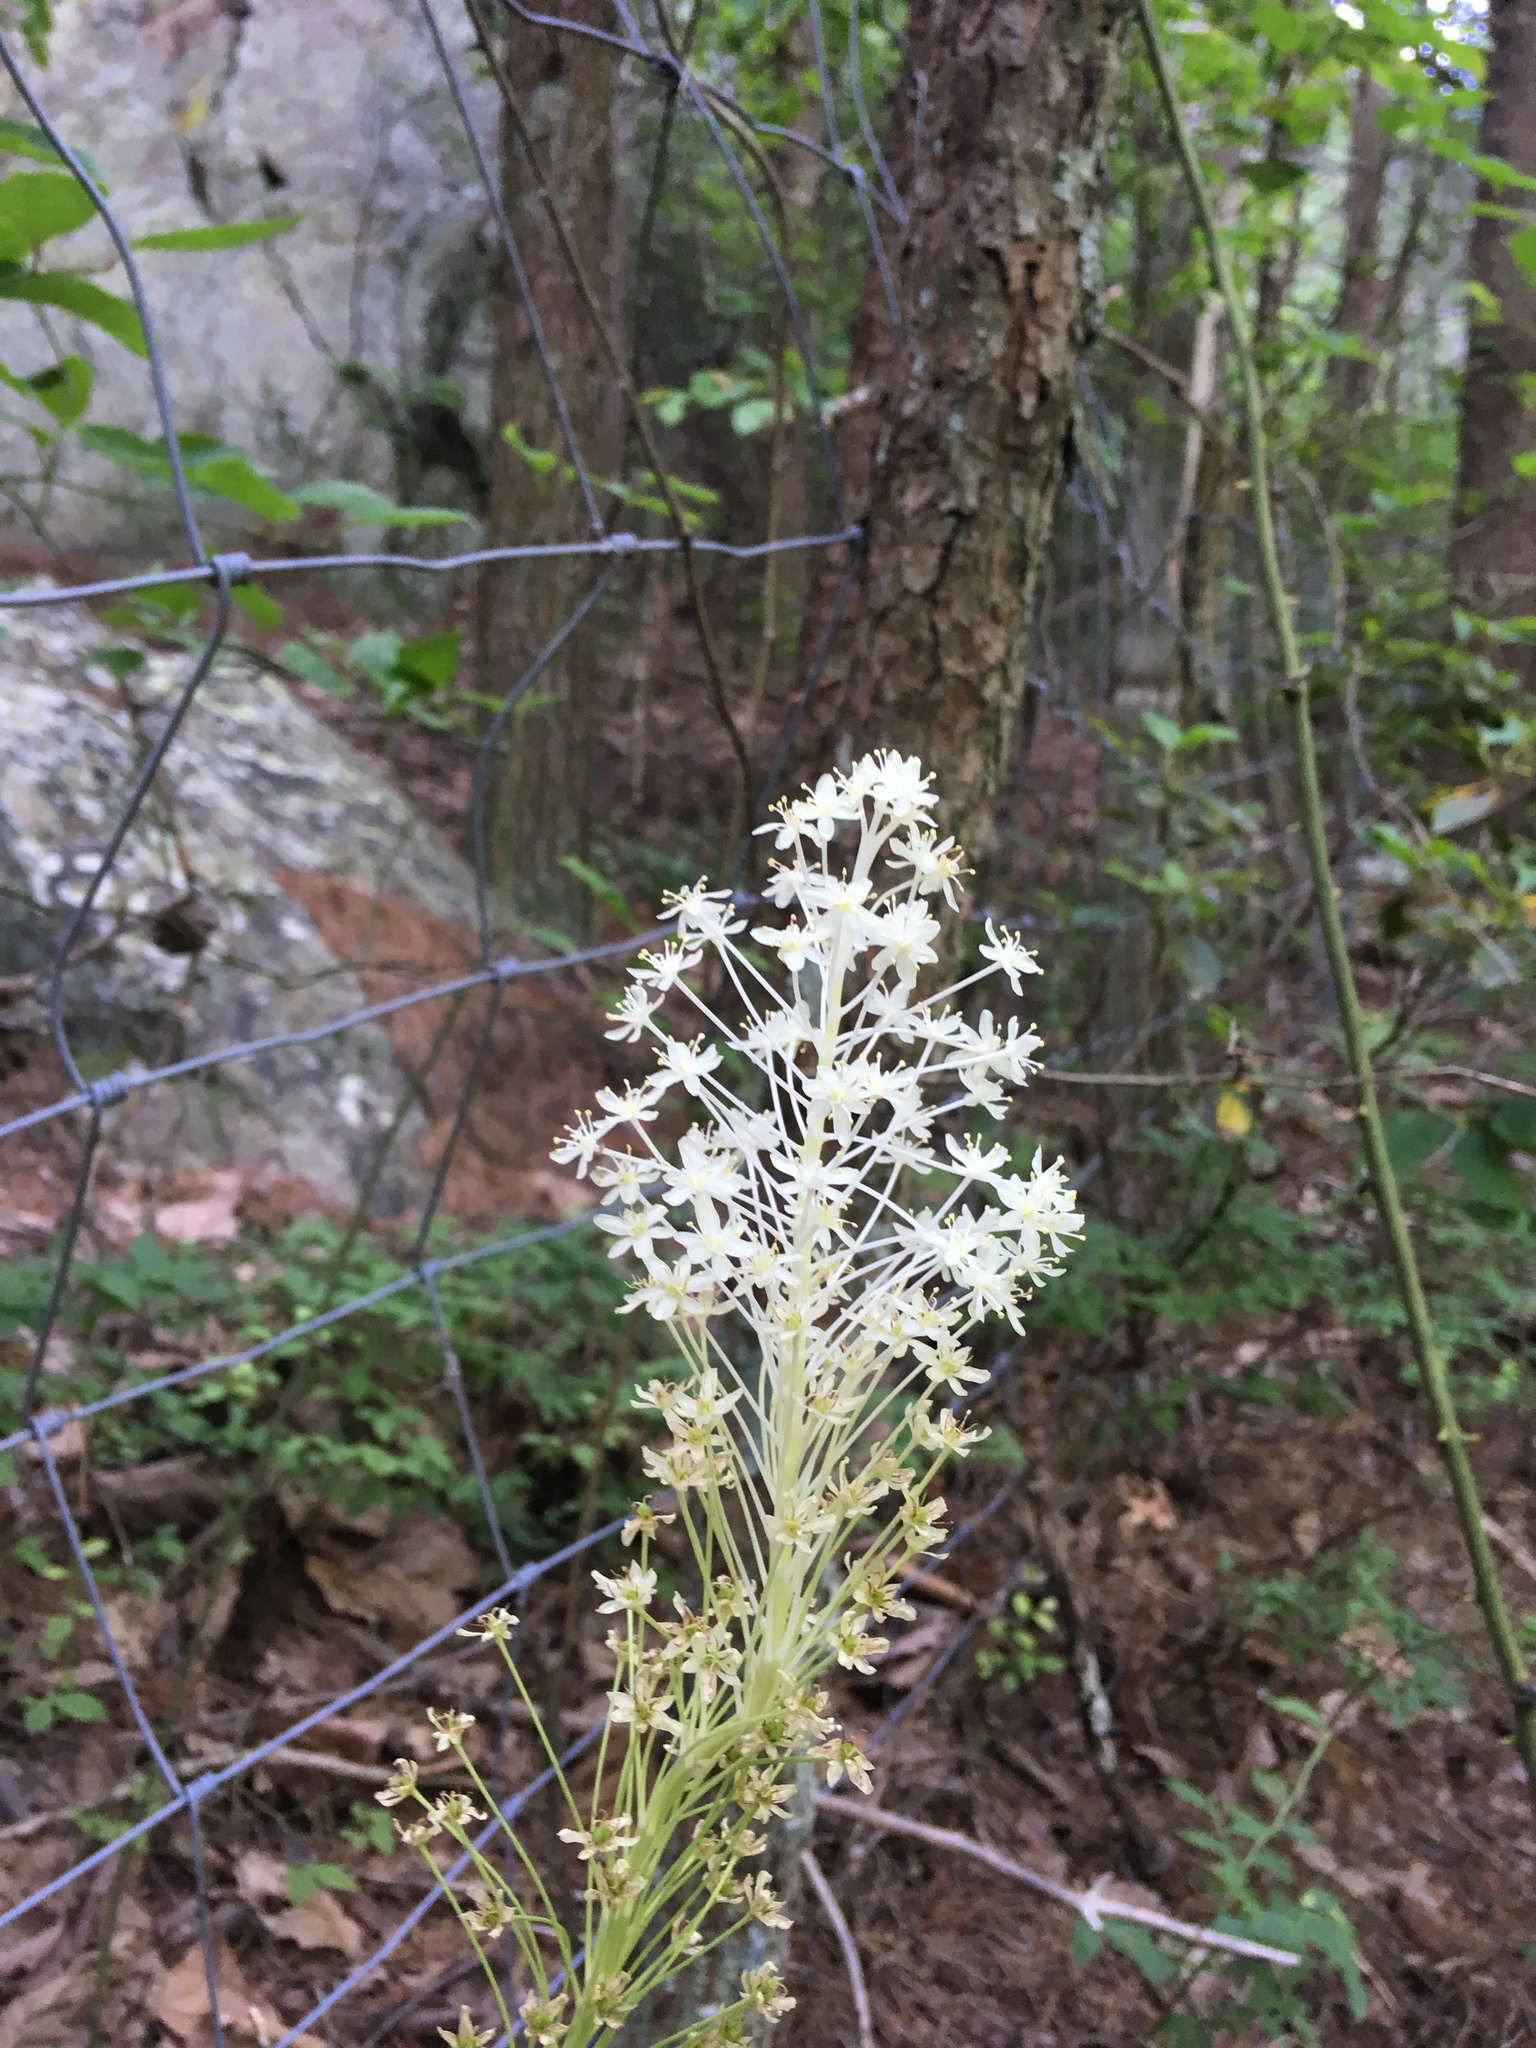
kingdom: Plantae
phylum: Tracheophyta
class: Liliopsida
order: Liliales
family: Melanthiaceae
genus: Xerophyllum
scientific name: Xerophyllum asphodeloides
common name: Mountain-asphodel
